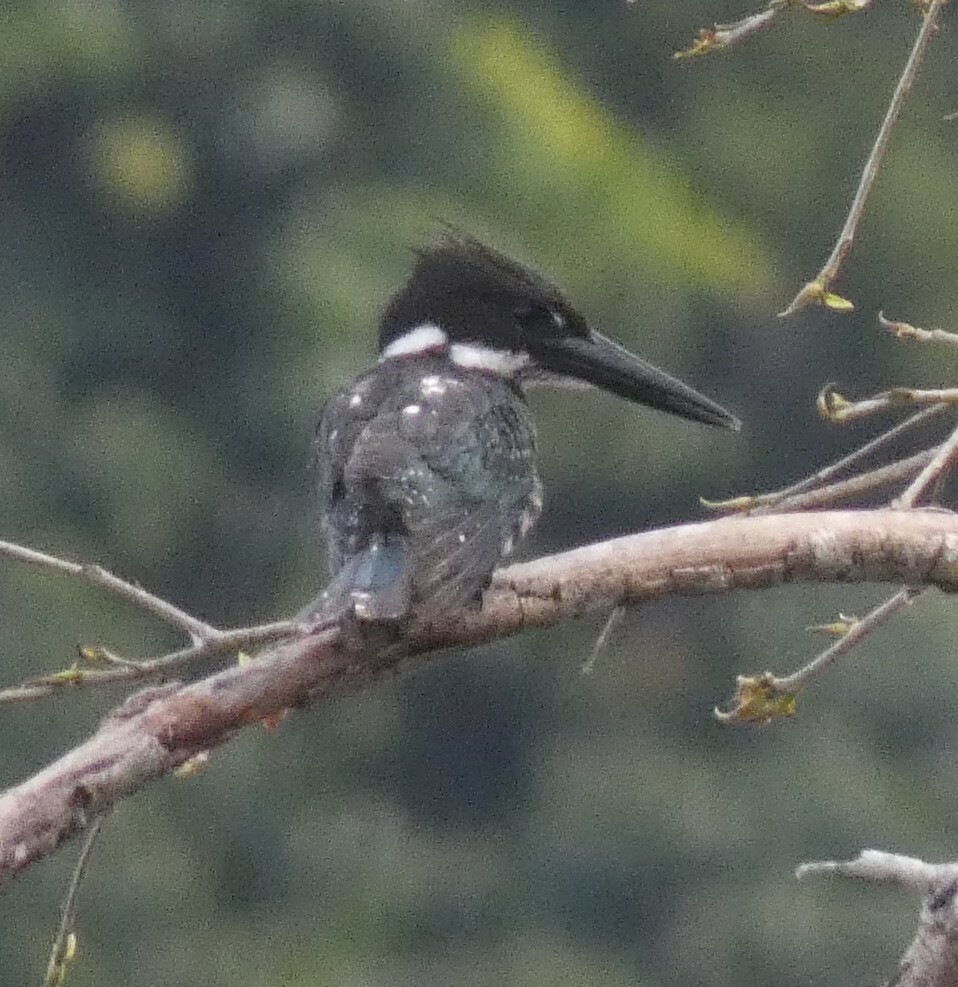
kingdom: Animalia
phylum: Chordata
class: Aves
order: Coraciiformes
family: Alcedinidae
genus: Chloroceryle
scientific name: Chloroceryle amazona
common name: Amazon kingfisher
